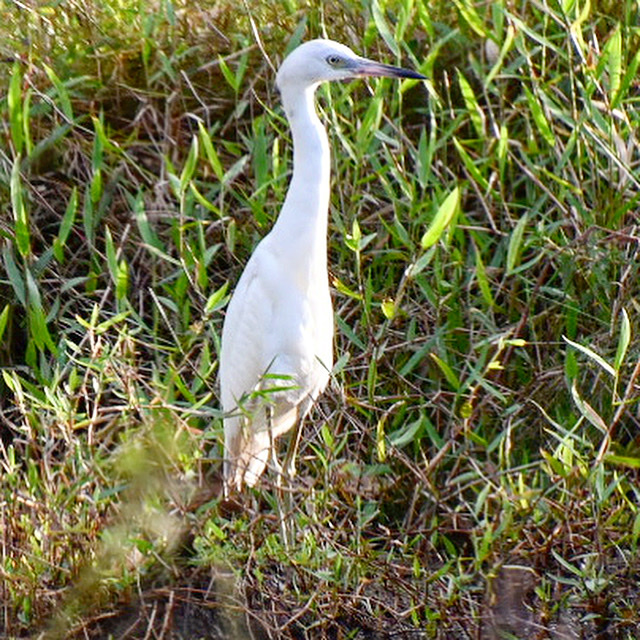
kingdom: Animalia
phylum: Chordata
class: Aves
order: Pelecaniformes
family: Ardeidae
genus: Egretta
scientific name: Egretta caerulea
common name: Little blue heron
